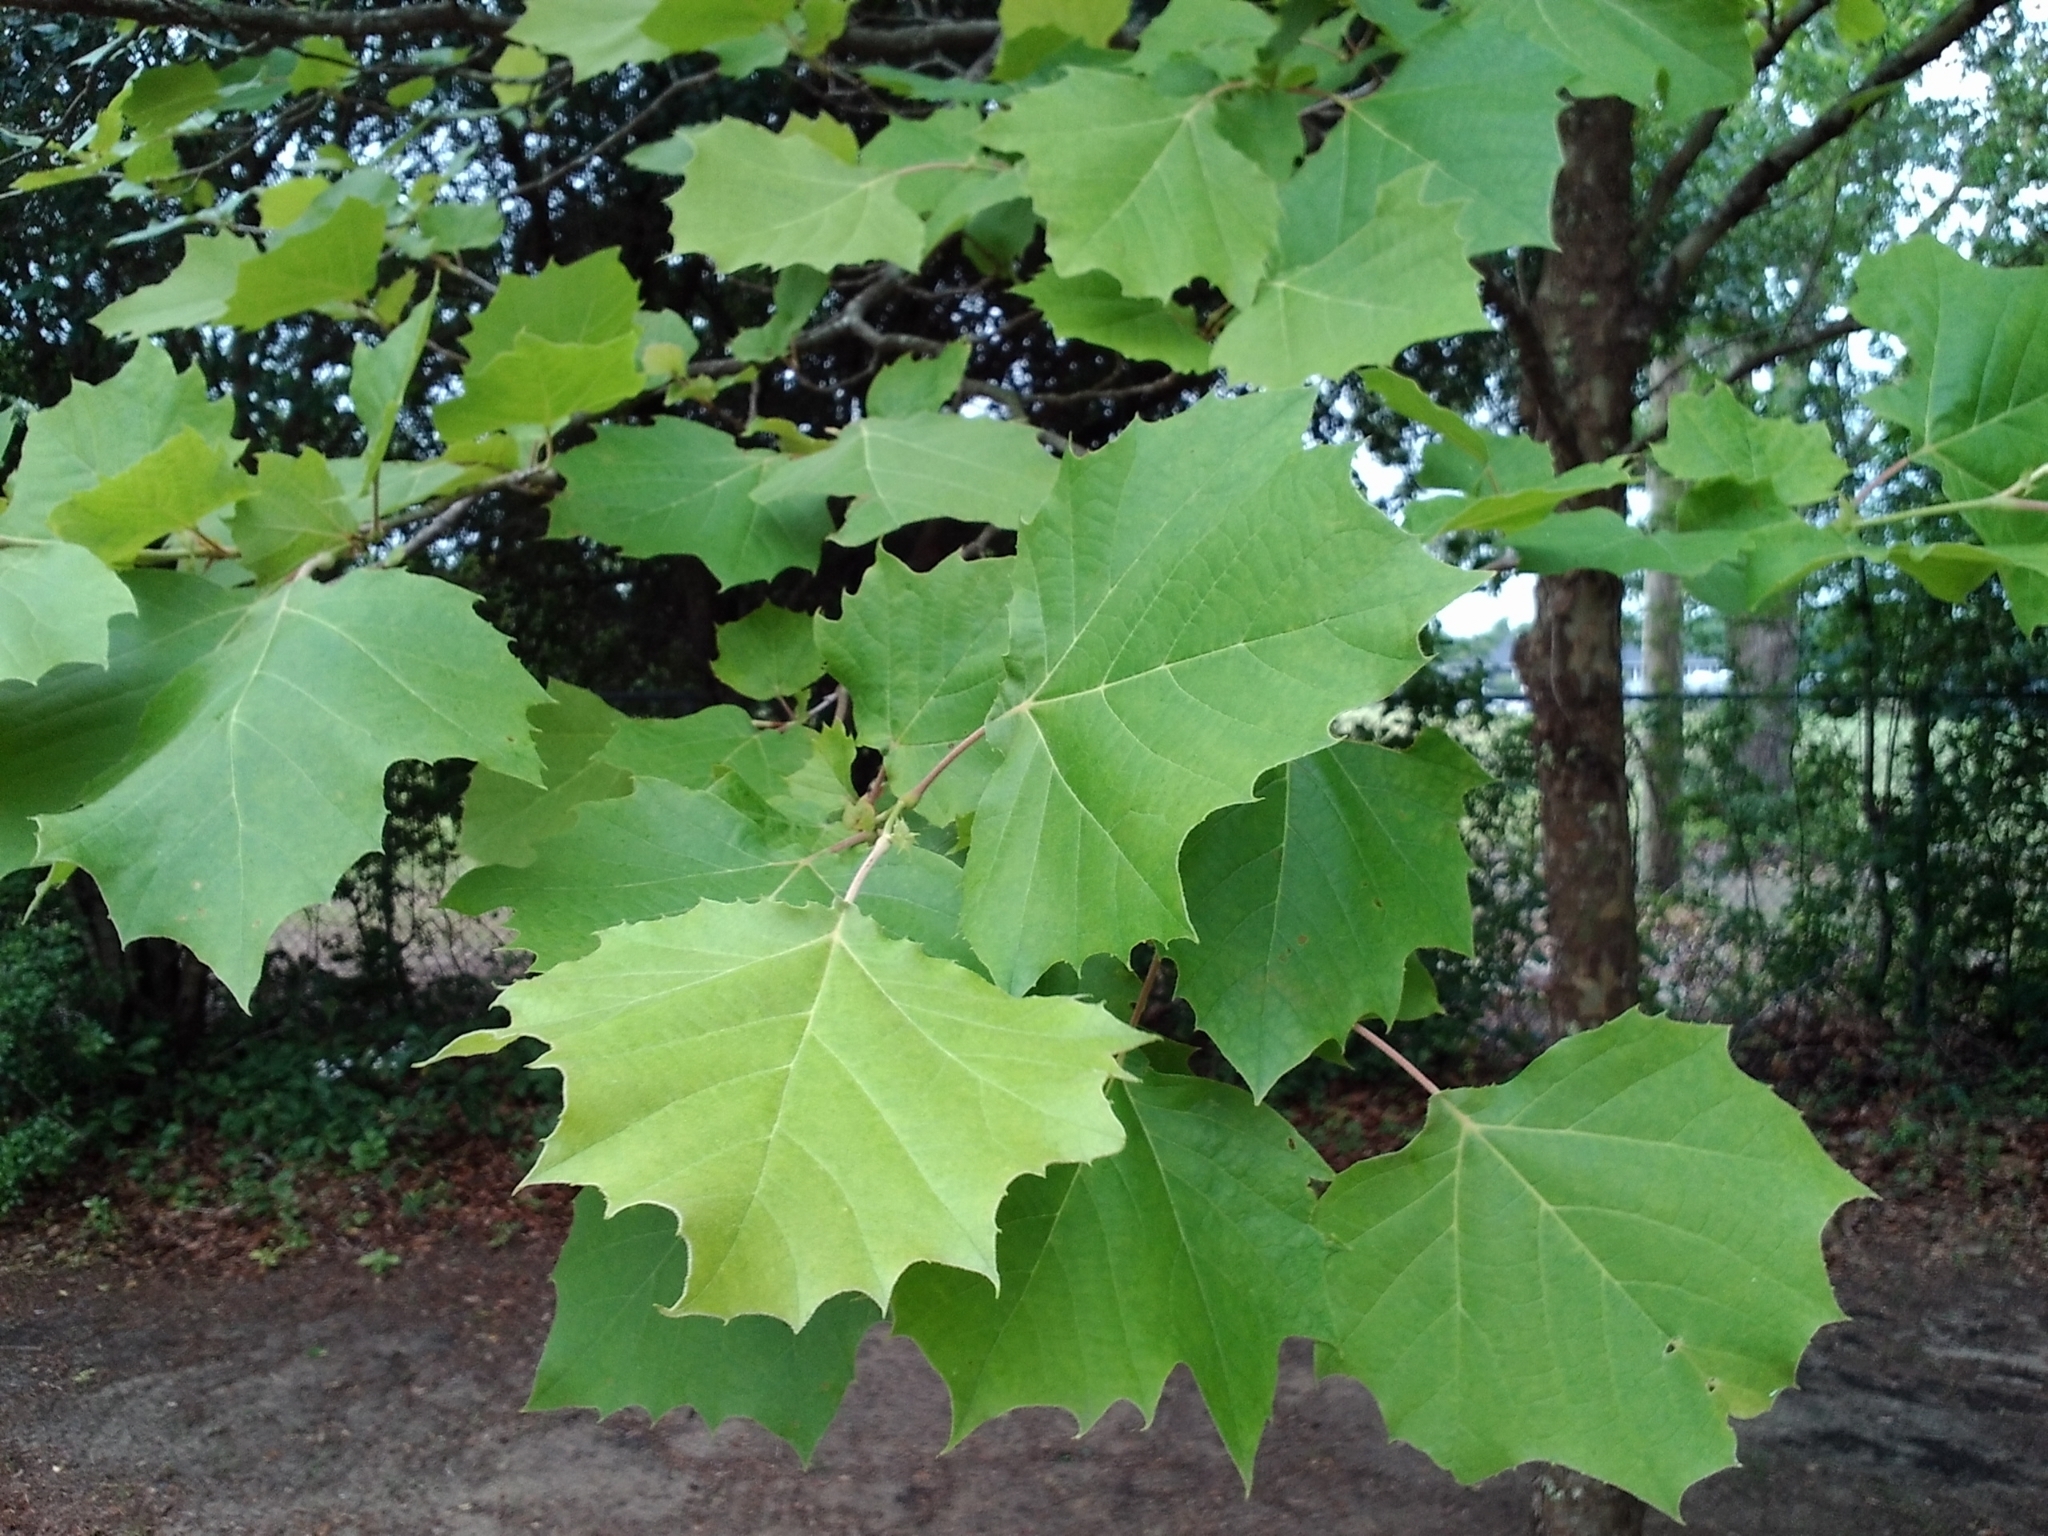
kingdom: Plantae
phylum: Tracheophyta
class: Magnoliopsida
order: Proteales
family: Platanaceae
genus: Platanus
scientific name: Platanus occidentalis
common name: American sycamore
